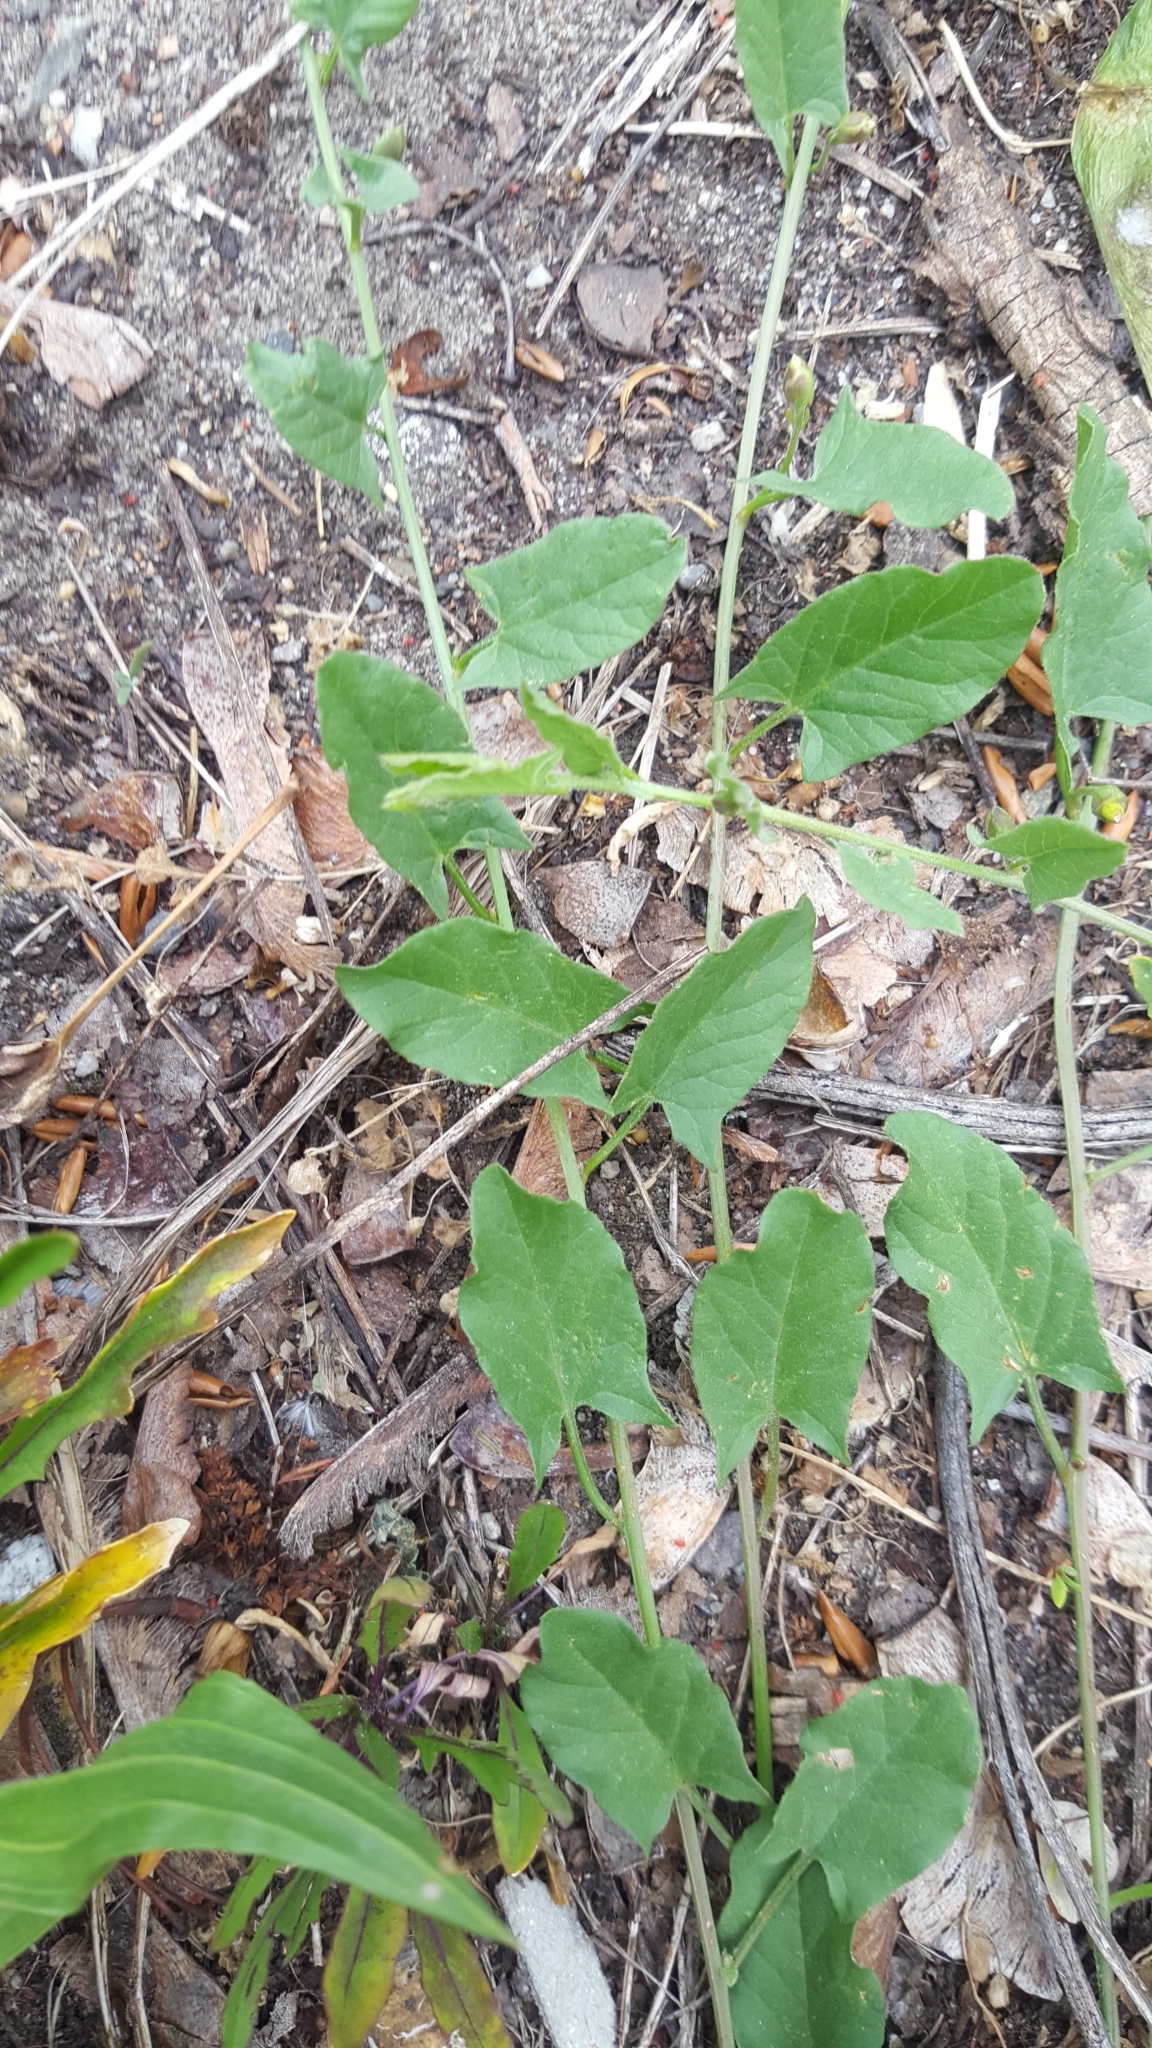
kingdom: Plantae
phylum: Tracheophyta
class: Magnoliopsida
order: Solanales
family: Convolvulaceae
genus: Convolvulus
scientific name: Convolvulus arvensis
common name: Field bindweed
